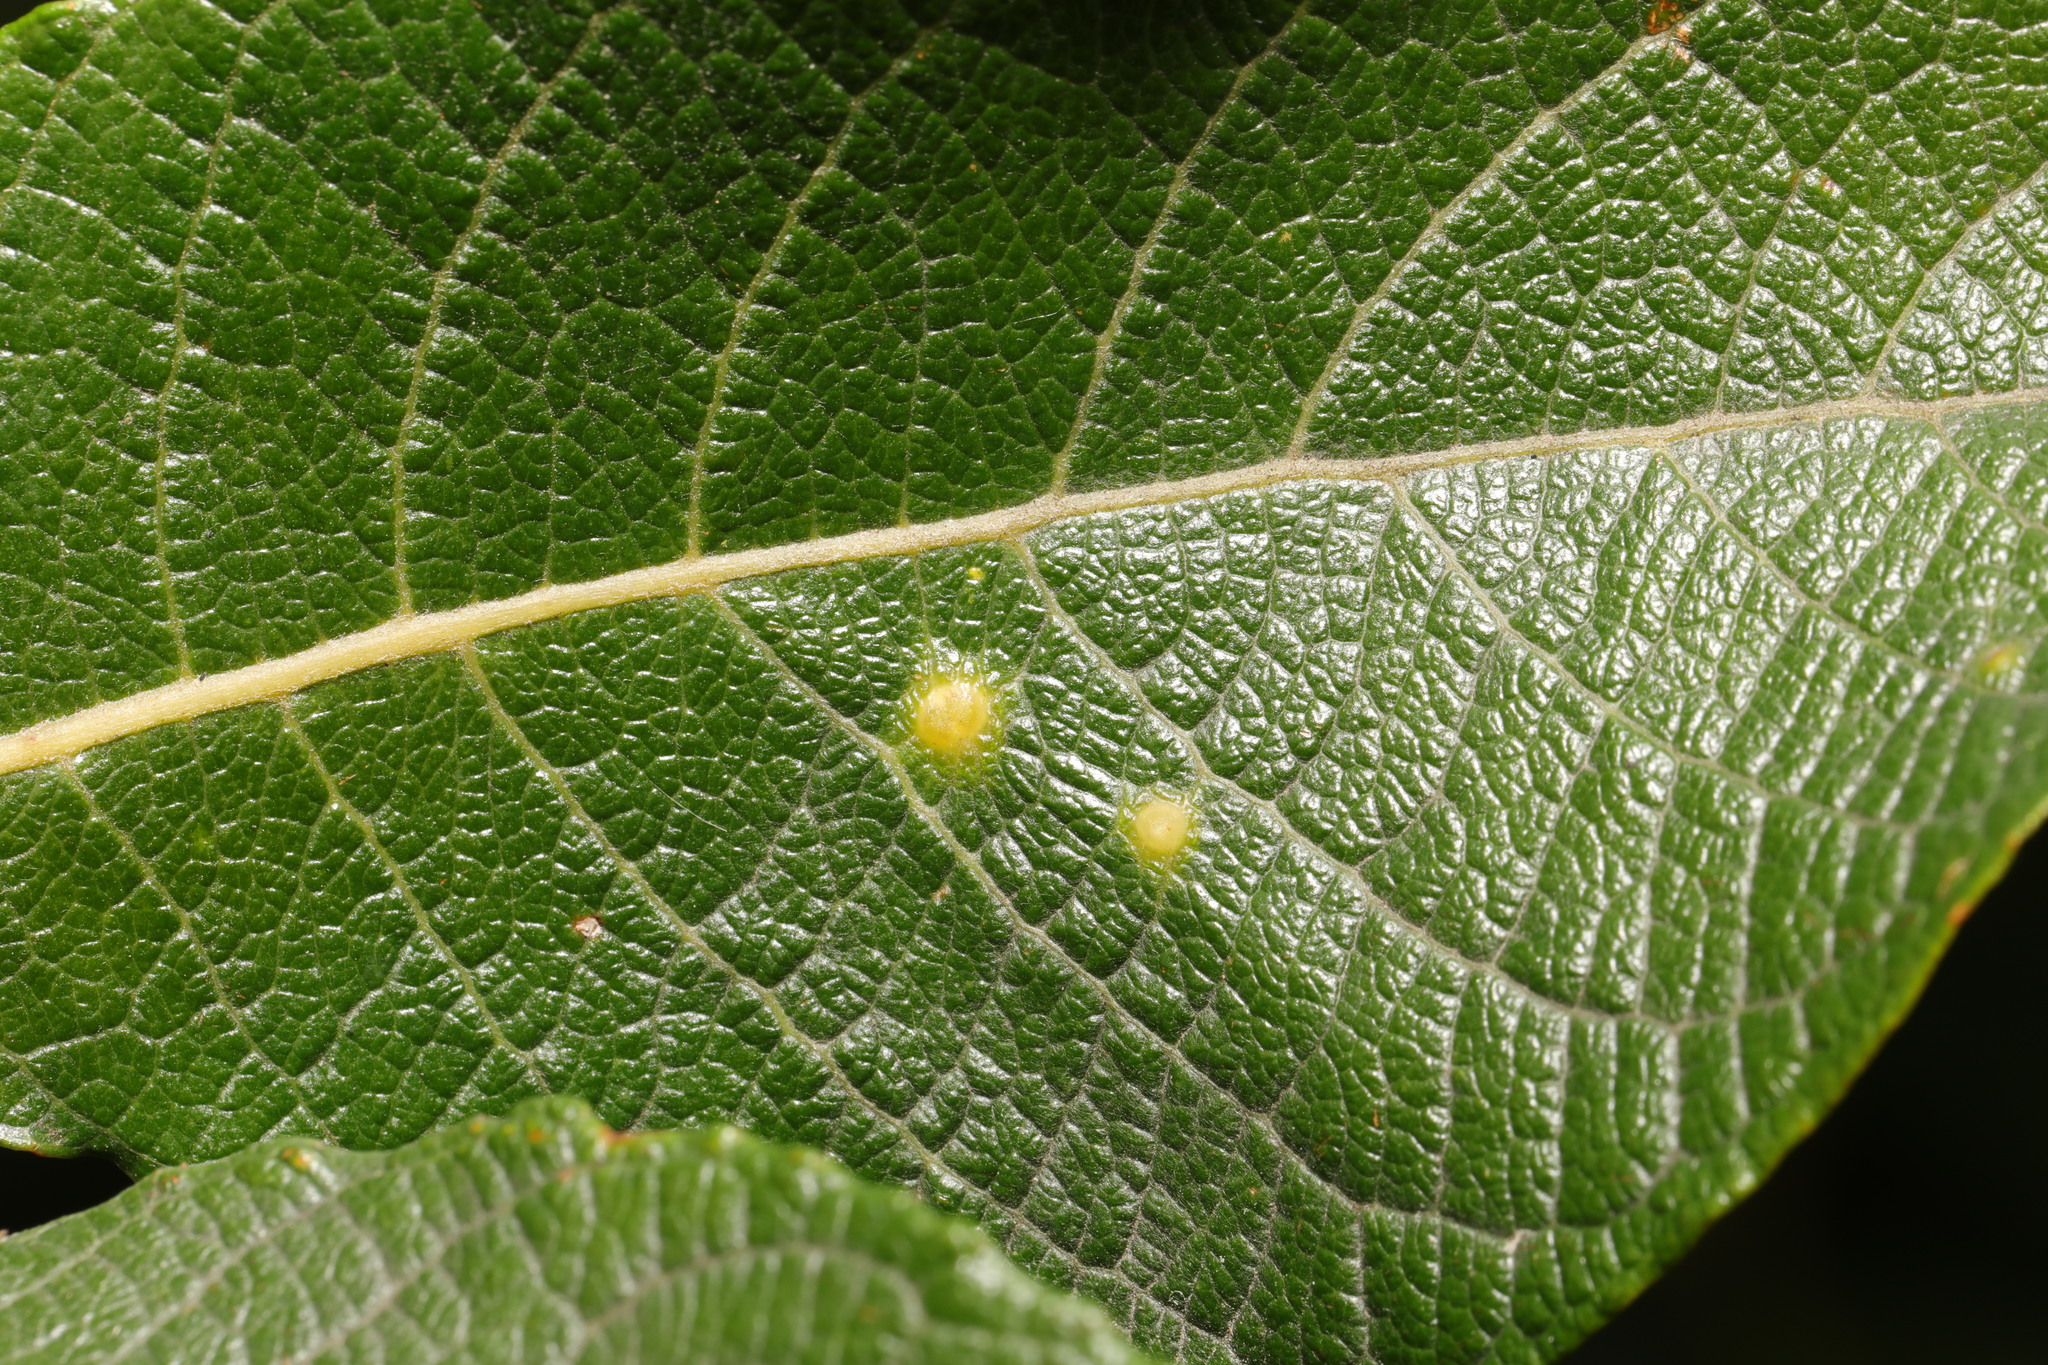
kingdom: Animalia
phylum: Arthropoda
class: Insecta
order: Diptera
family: Cecidomyiidae
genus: Iteomyia
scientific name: Iteomyia capreae
